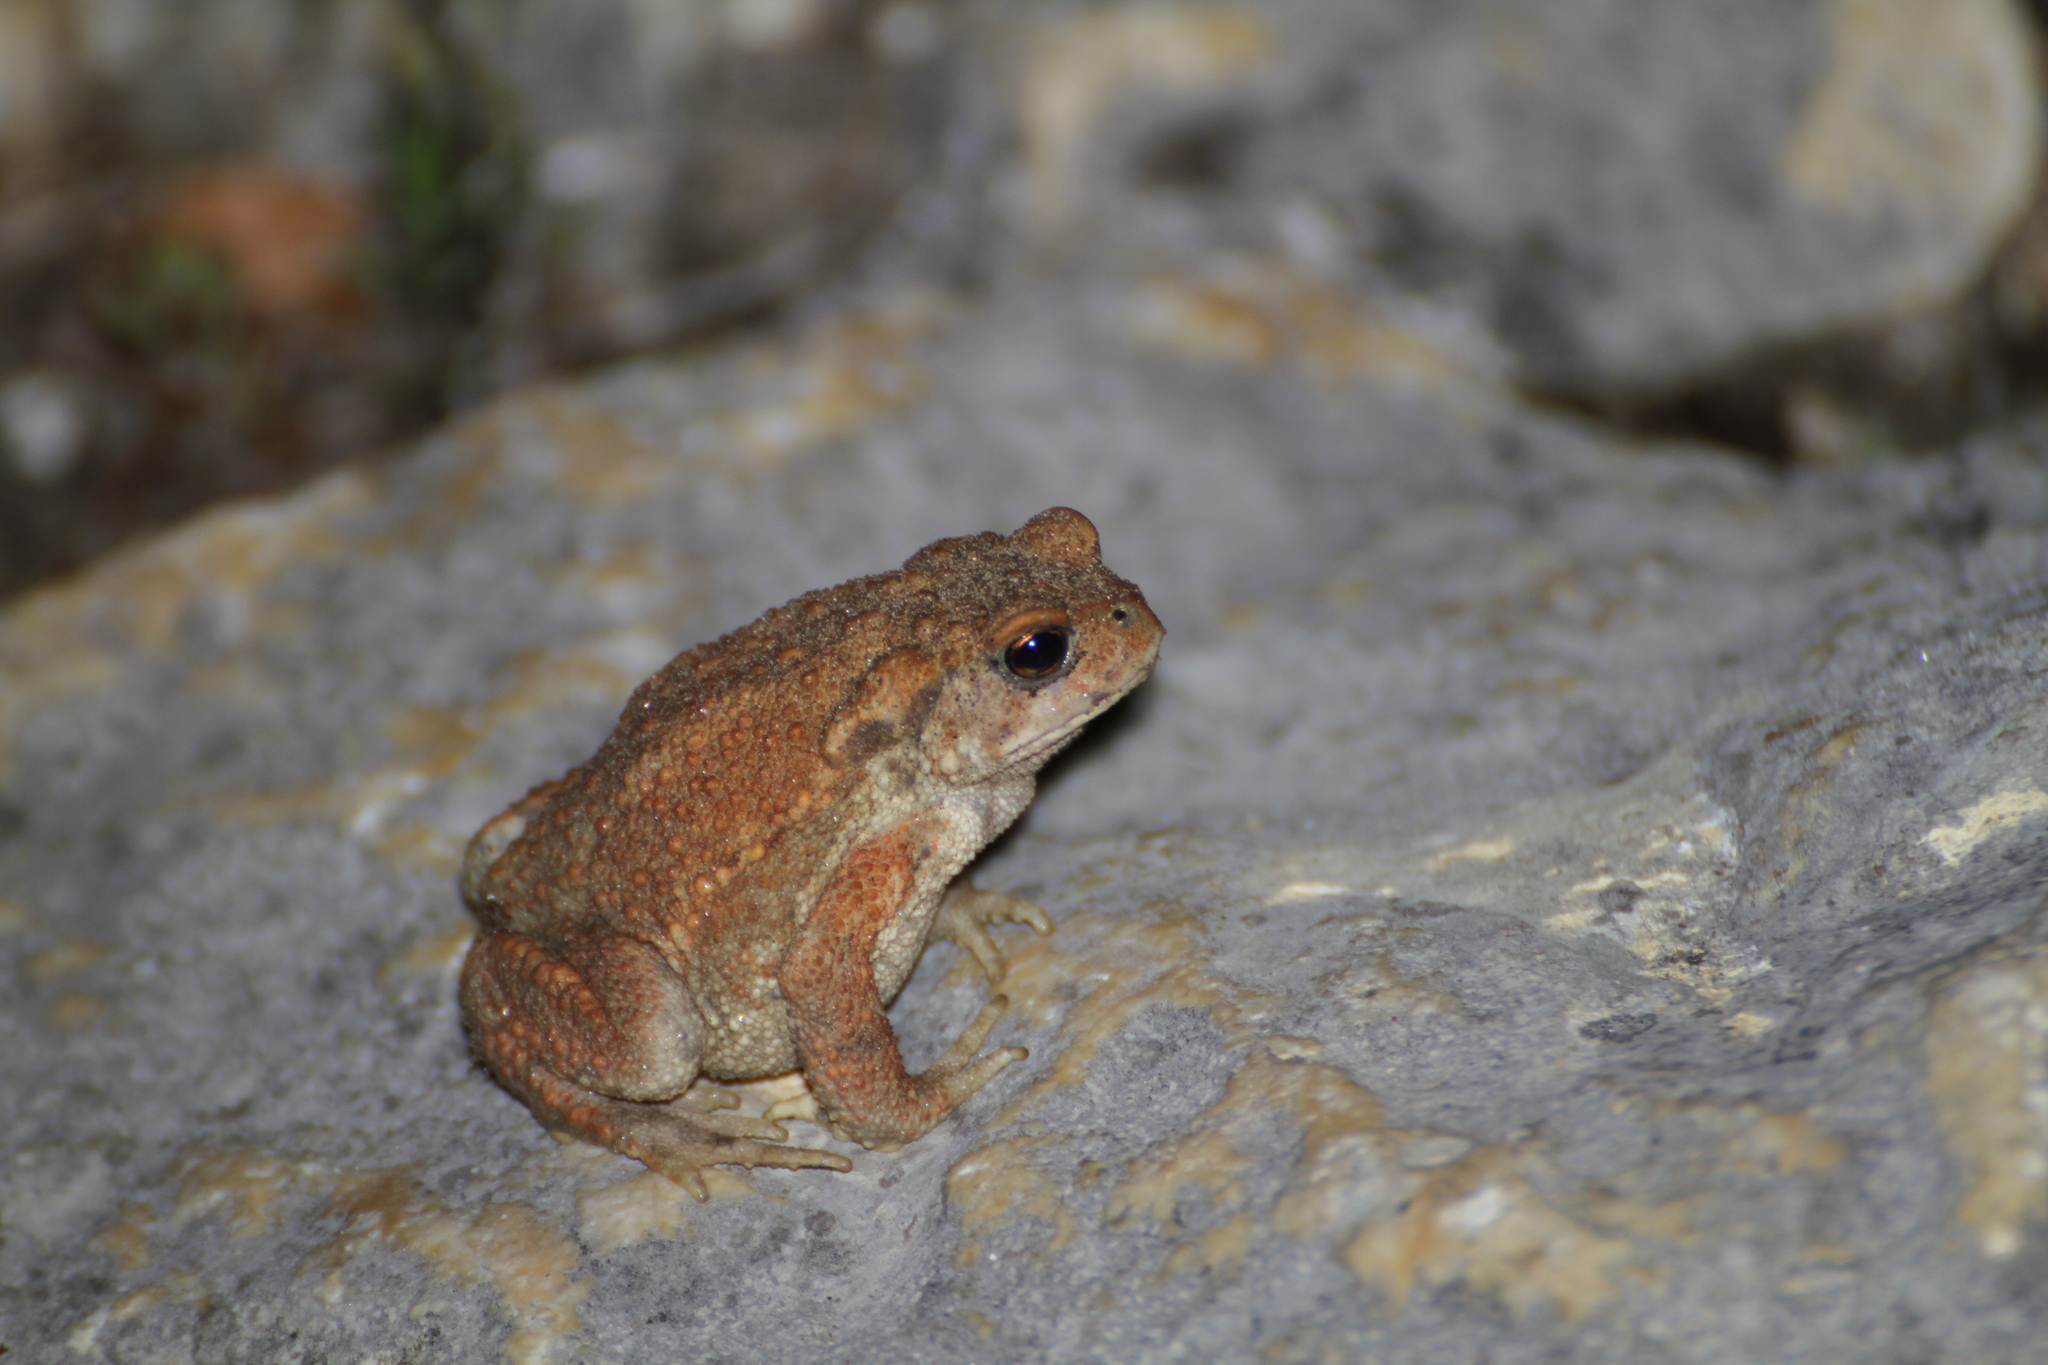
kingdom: Animalia
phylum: Chordata
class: Amphibia
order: Anura
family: Bufonidae
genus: Bufo
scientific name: Bufo spinosus
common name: Western common toad
